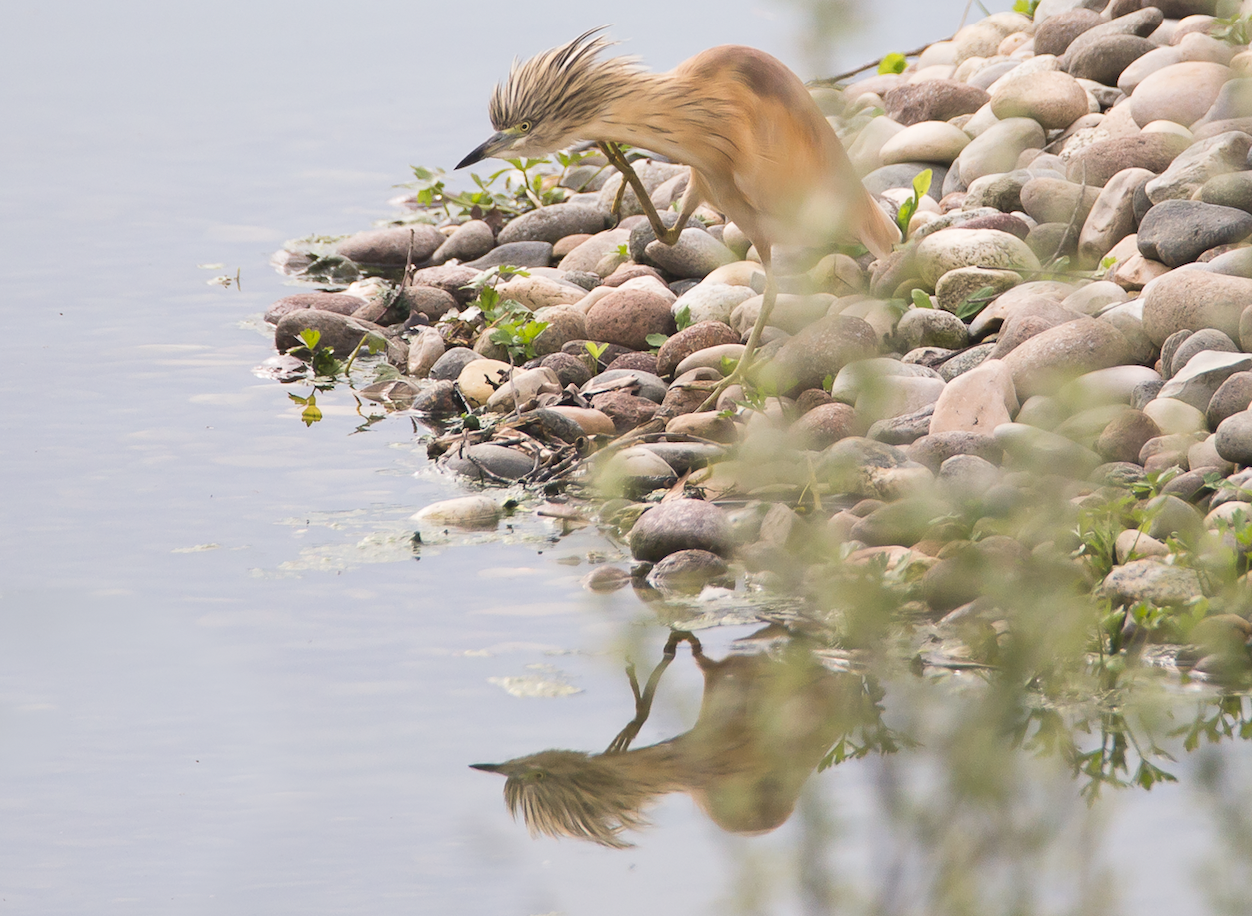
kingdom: Animalia
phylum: Chordata
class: Aves
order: Pelecaniformes
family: Ardeidae
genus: Ardeola
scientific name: Ardeola ralloides
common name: Squacco heron
